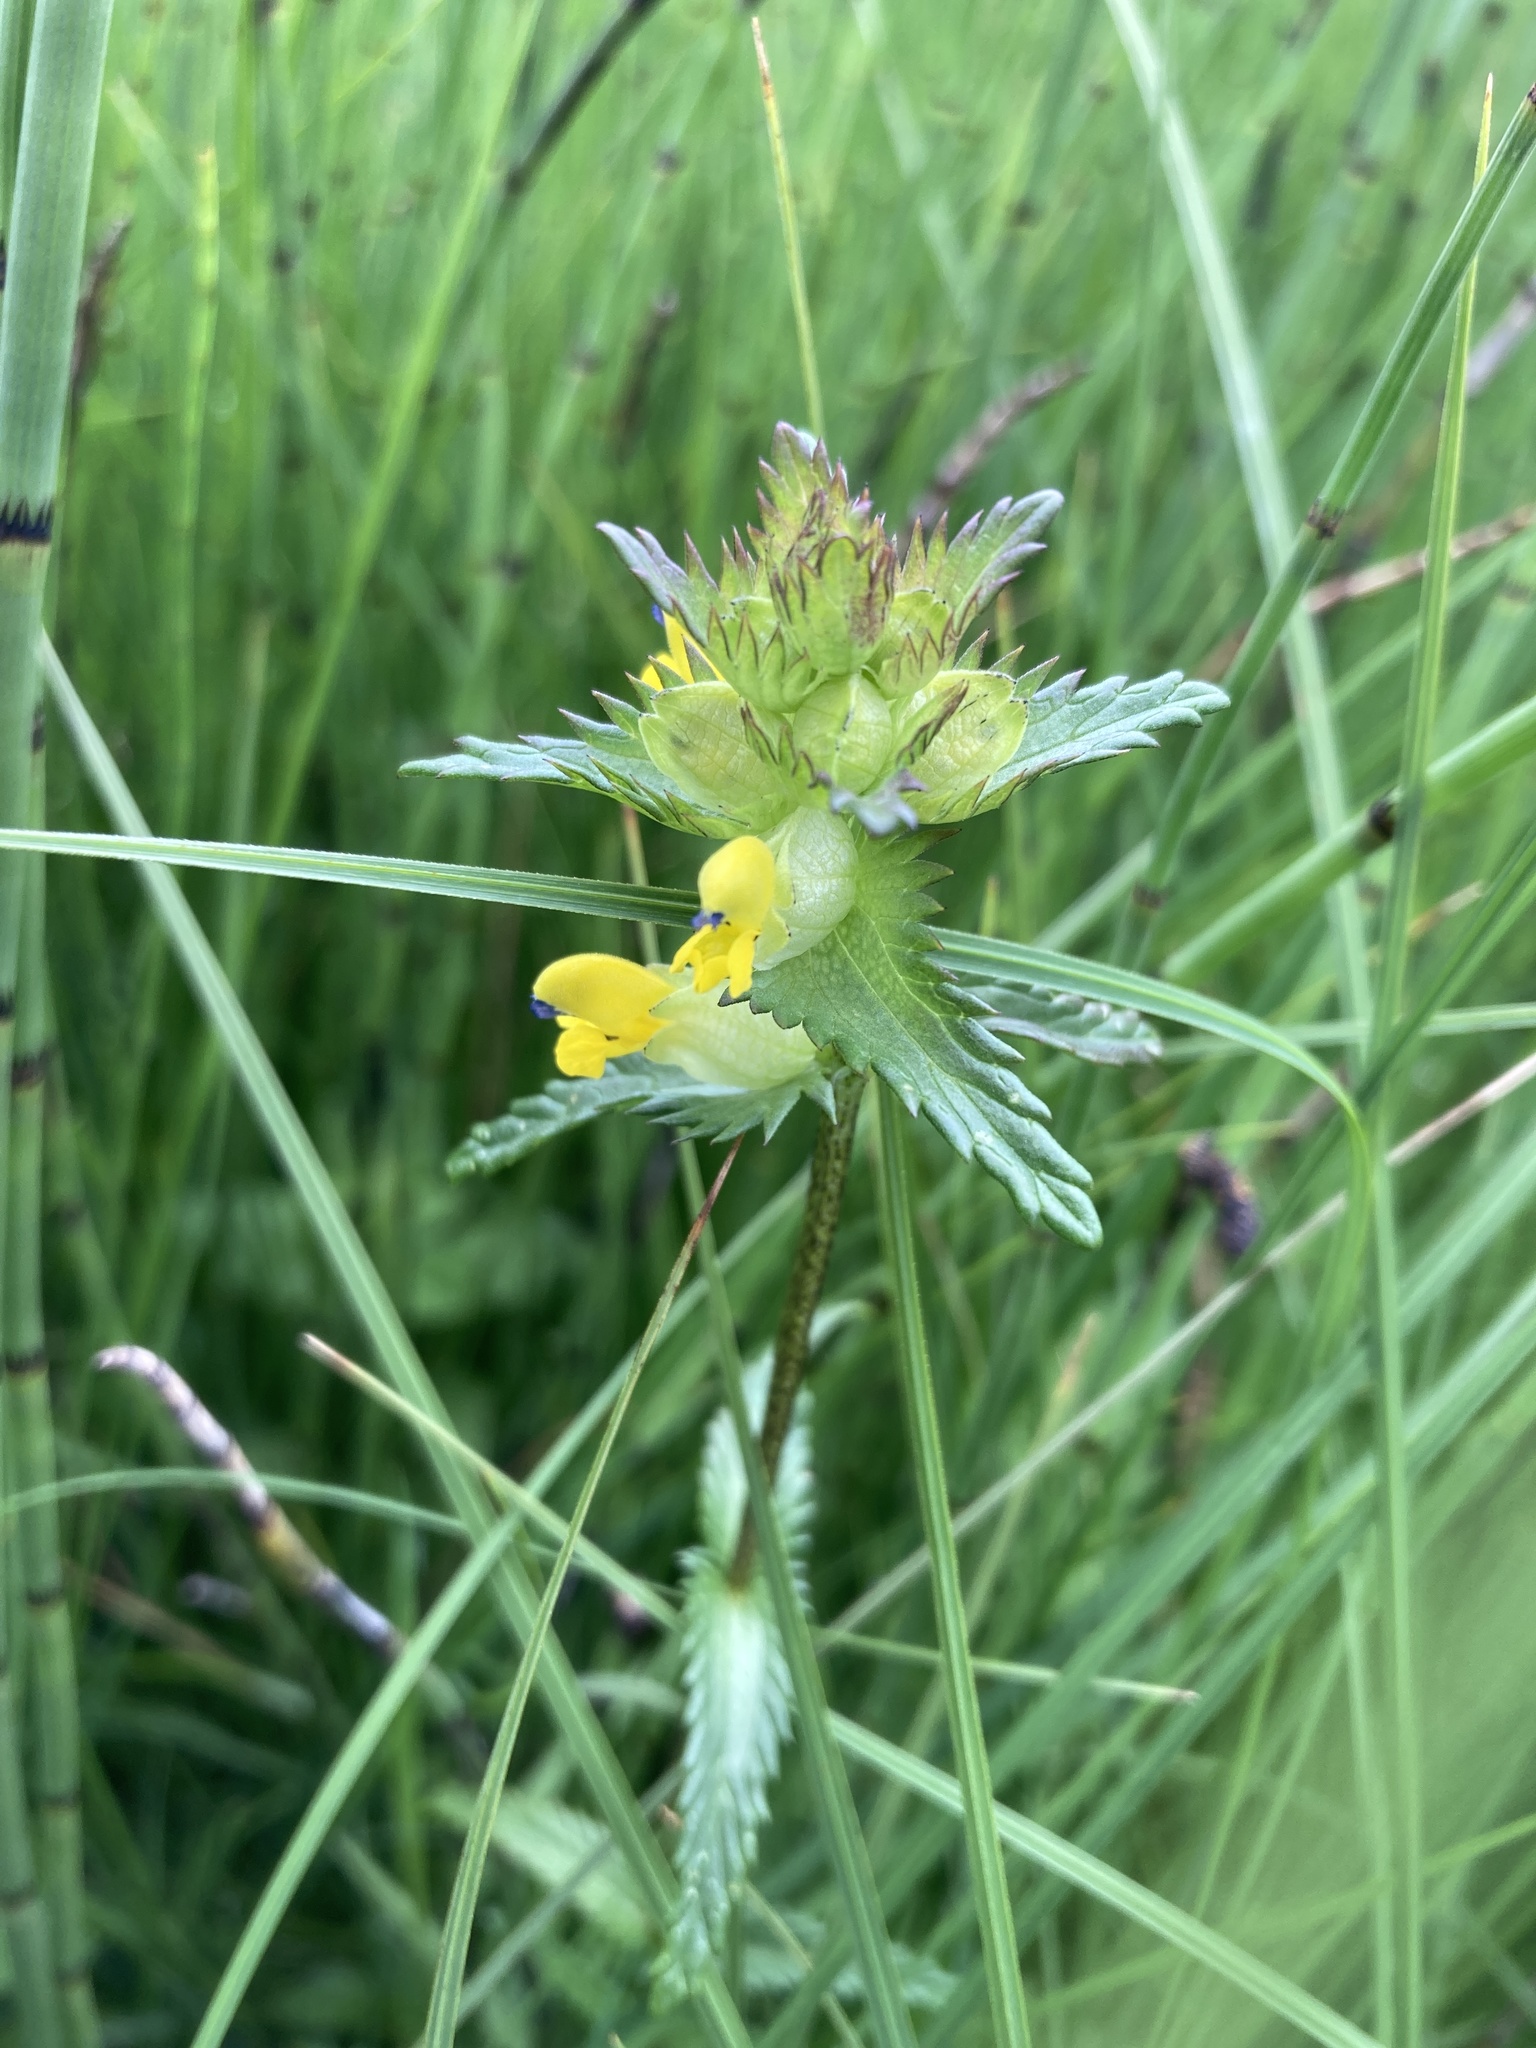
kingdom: Plantae
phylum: Tracheophyta
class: Magnoliopsida
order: Lamiales
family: Orobanchaceae
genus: Rhinanthus
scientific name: Rhinanthus minor
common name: Yellow-rattle
